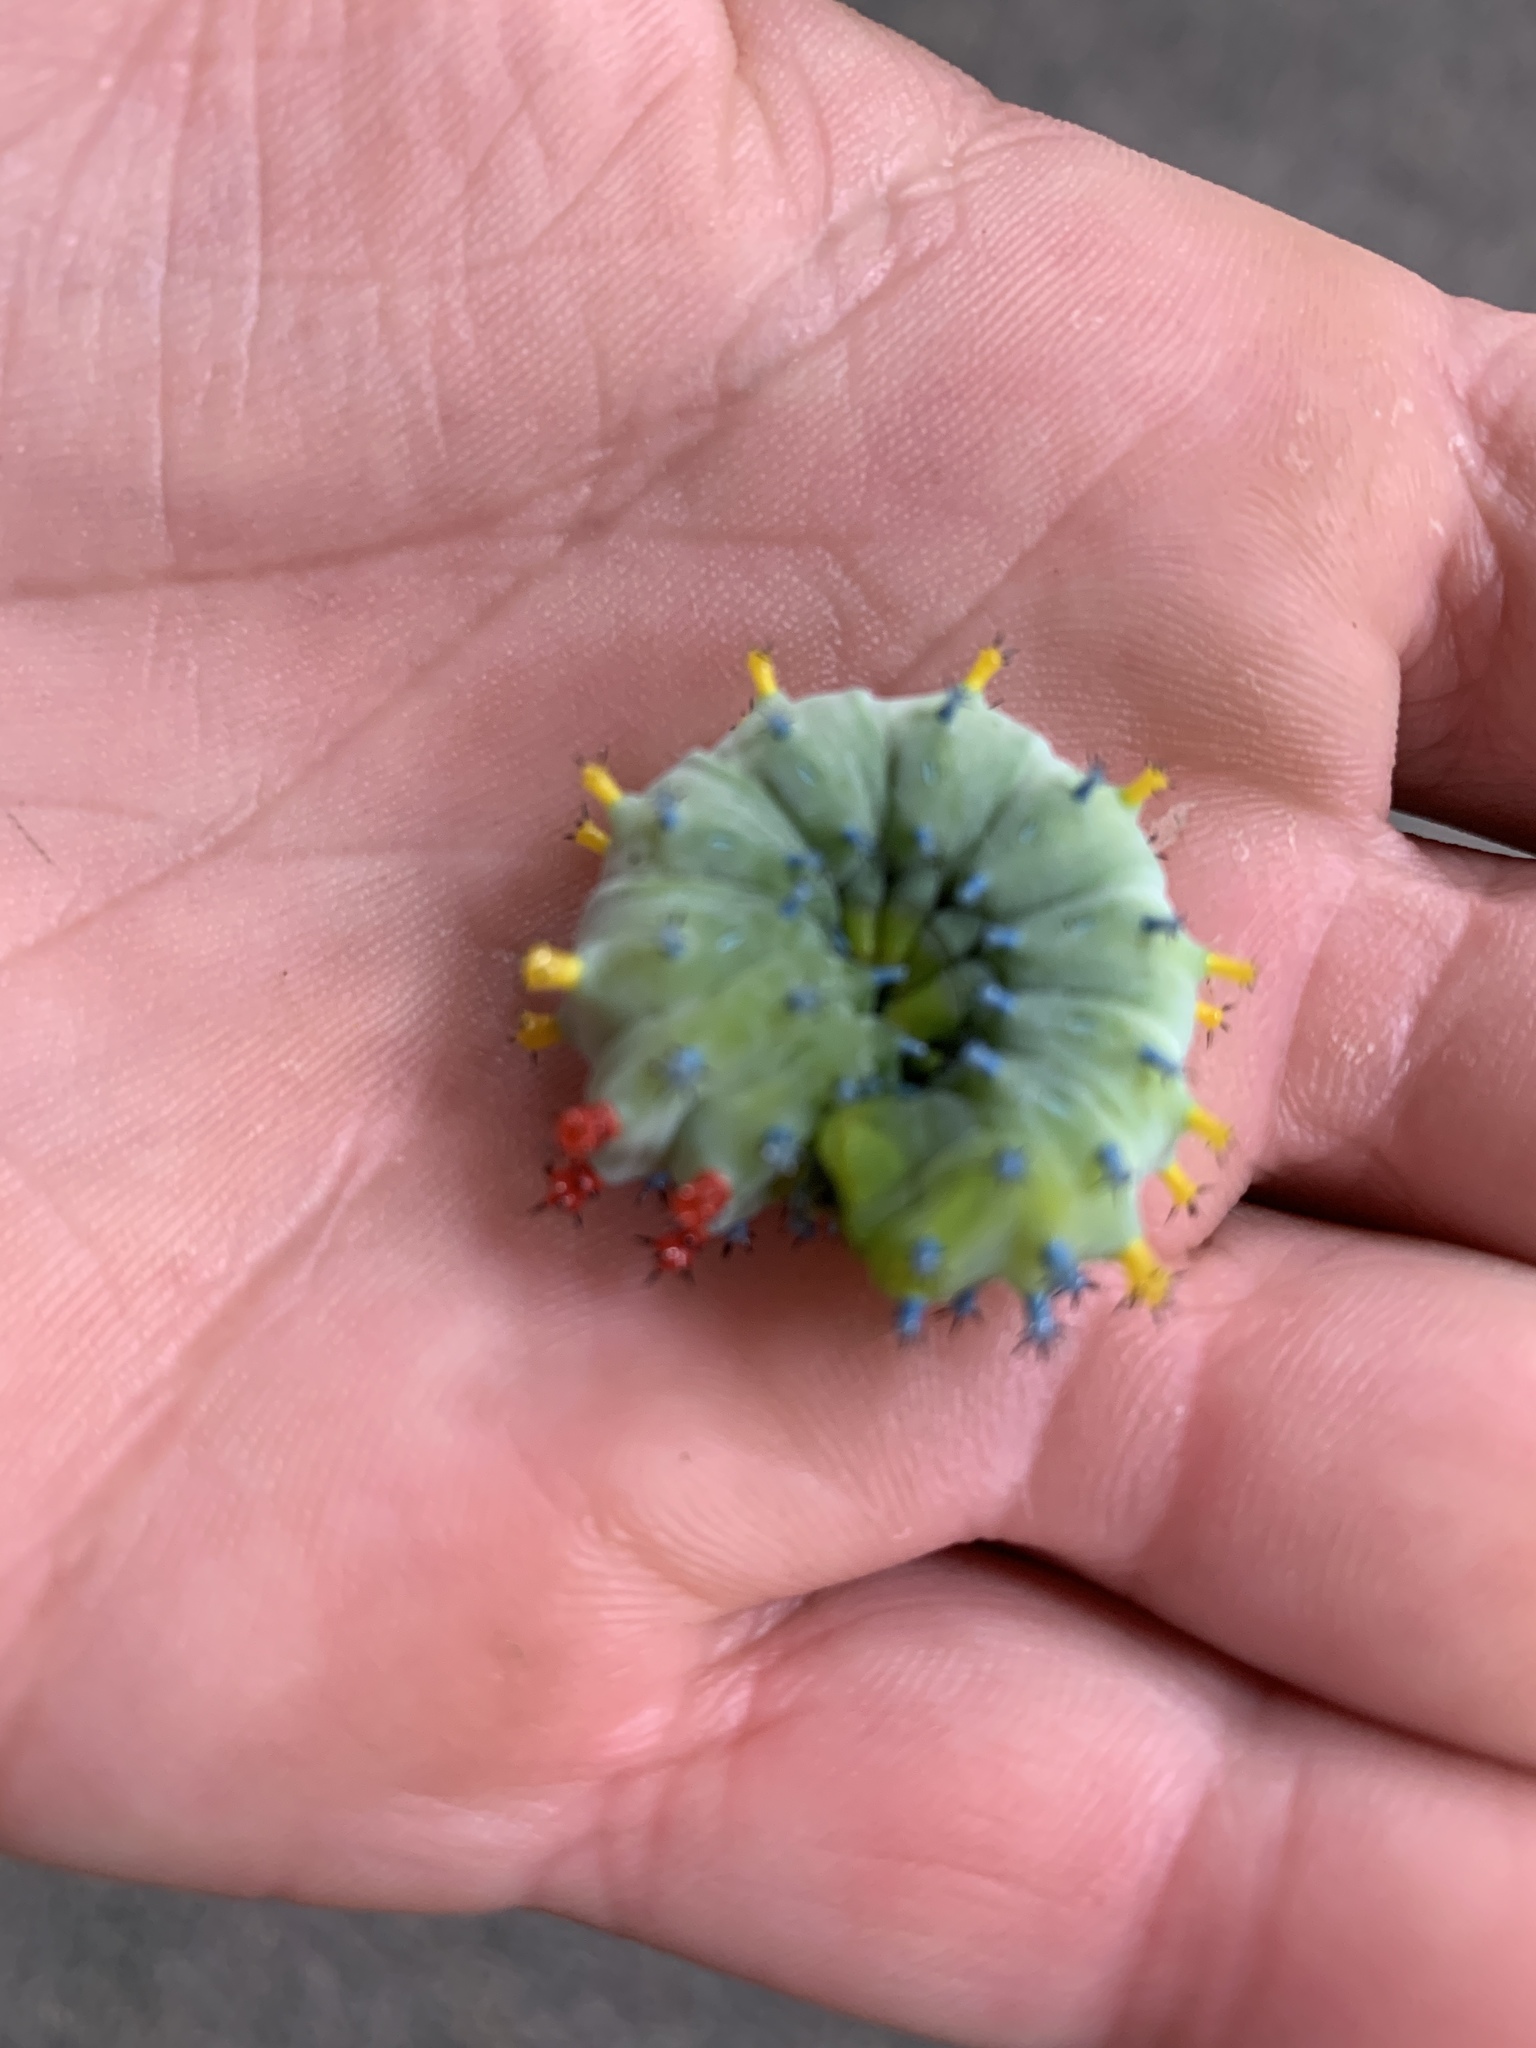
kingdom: Animalia
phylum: Arthropoda
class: Insecta
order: Lepidoptera
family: Saturniidae
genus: Hyalophora
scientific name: Hyalophora cecropia
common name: Cecropia silkmoth
